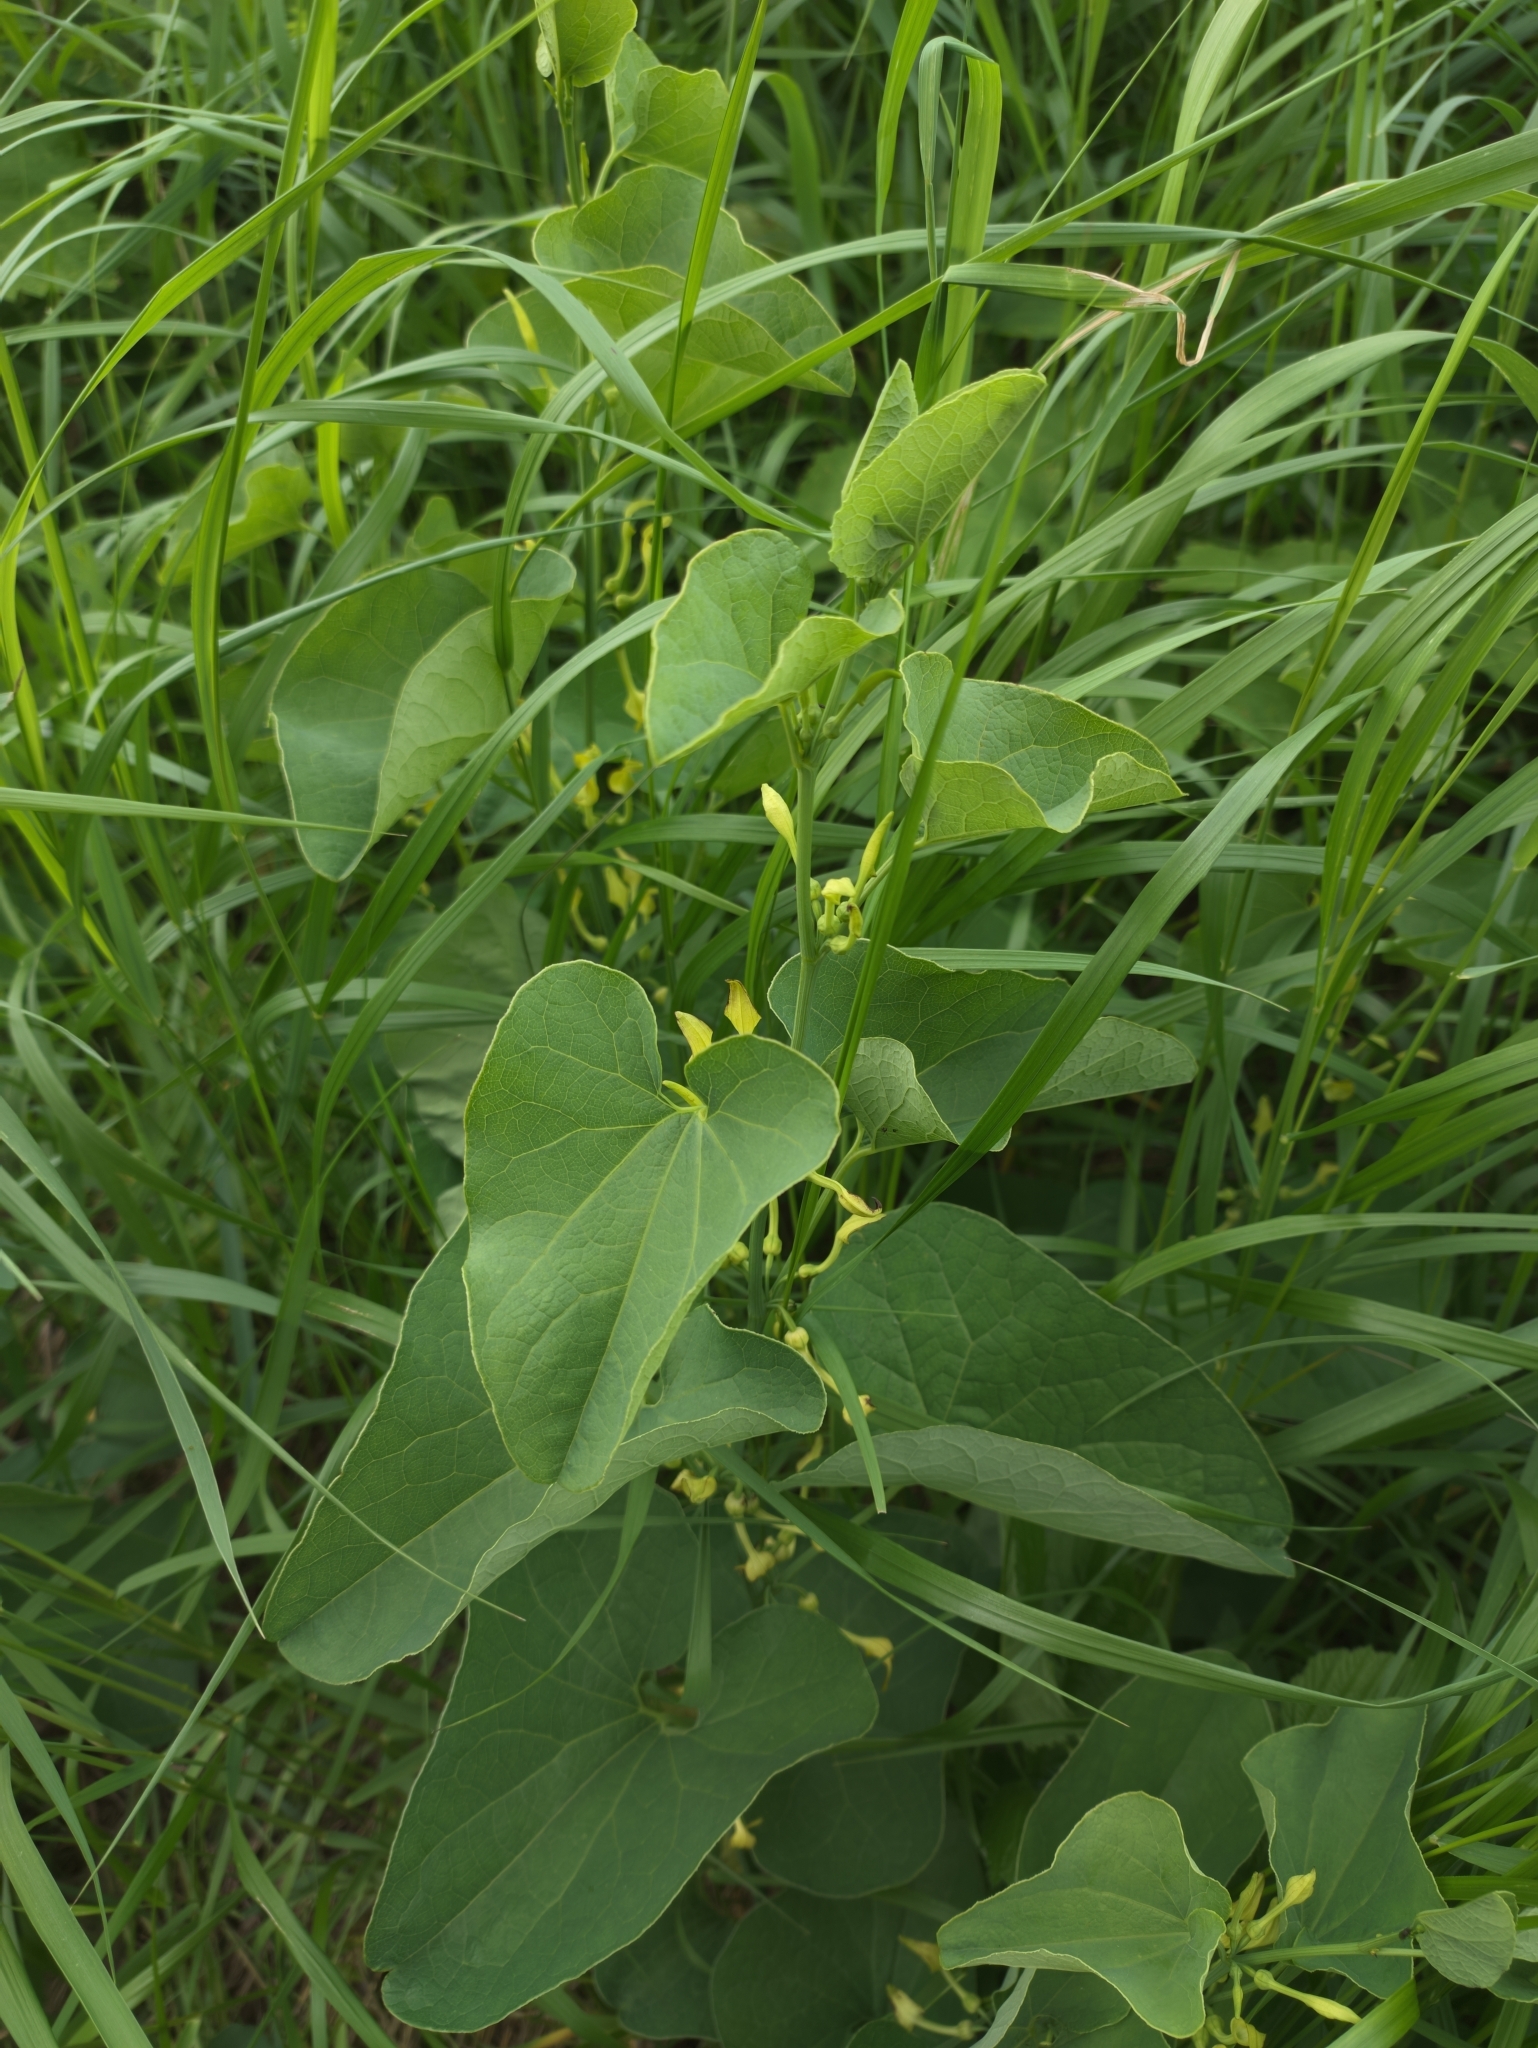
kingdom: Plantae
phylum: Tracheophyta
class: Magnoliopsida
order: Piperales
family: Aristolochiaceae
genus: Aristolochia
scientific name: Aristolochia clematitis
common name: Birthwort
